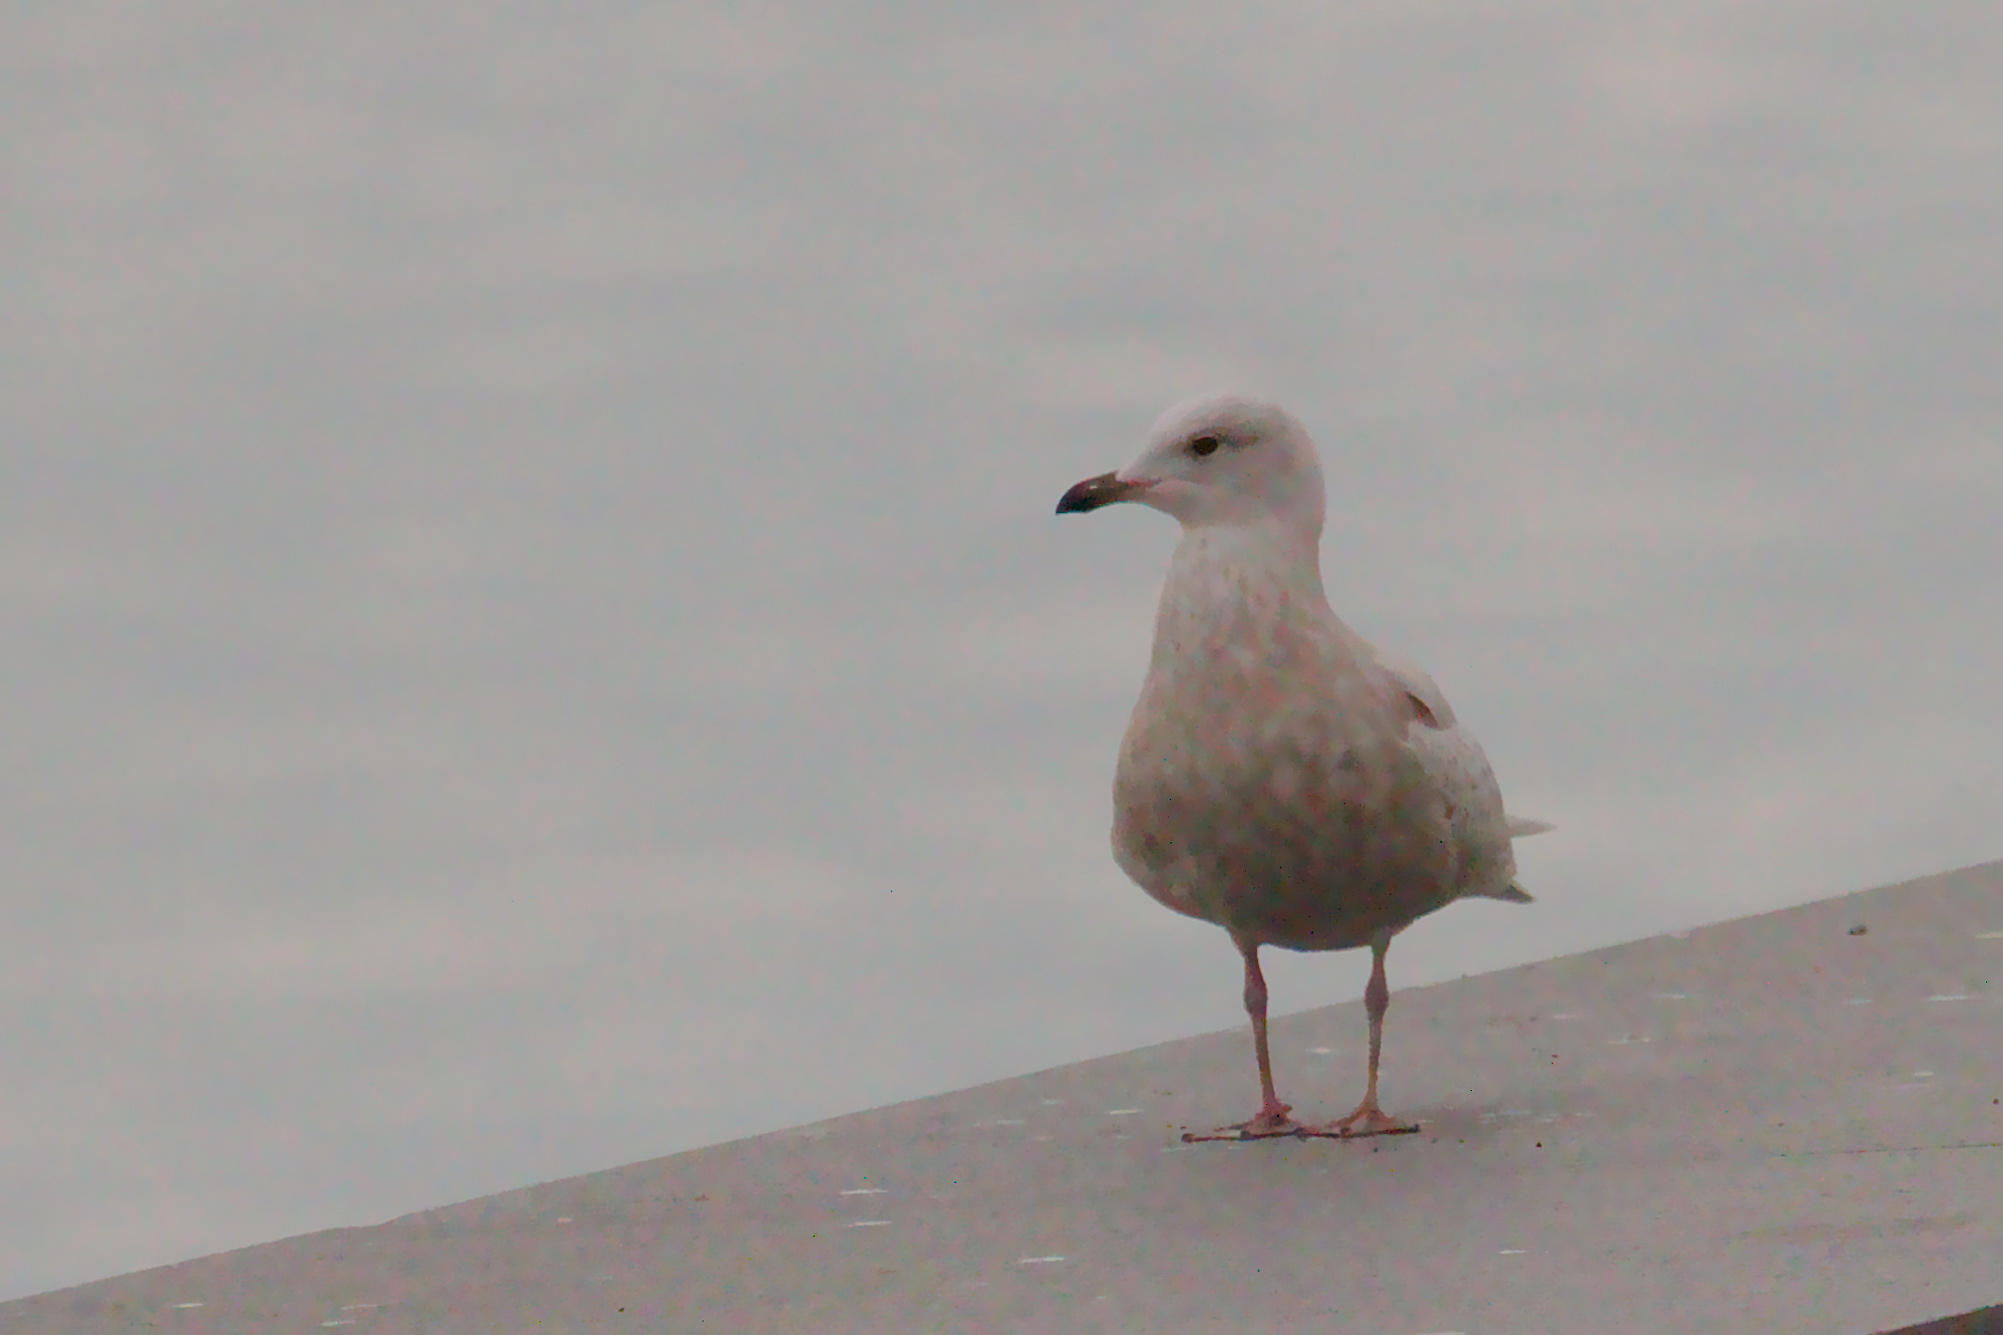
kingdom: Animalia
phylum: Chordata
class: Aves
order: Charadriiformes
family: Laridae
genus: Larus
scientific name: Larus glaucoides
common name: Iceland gull
